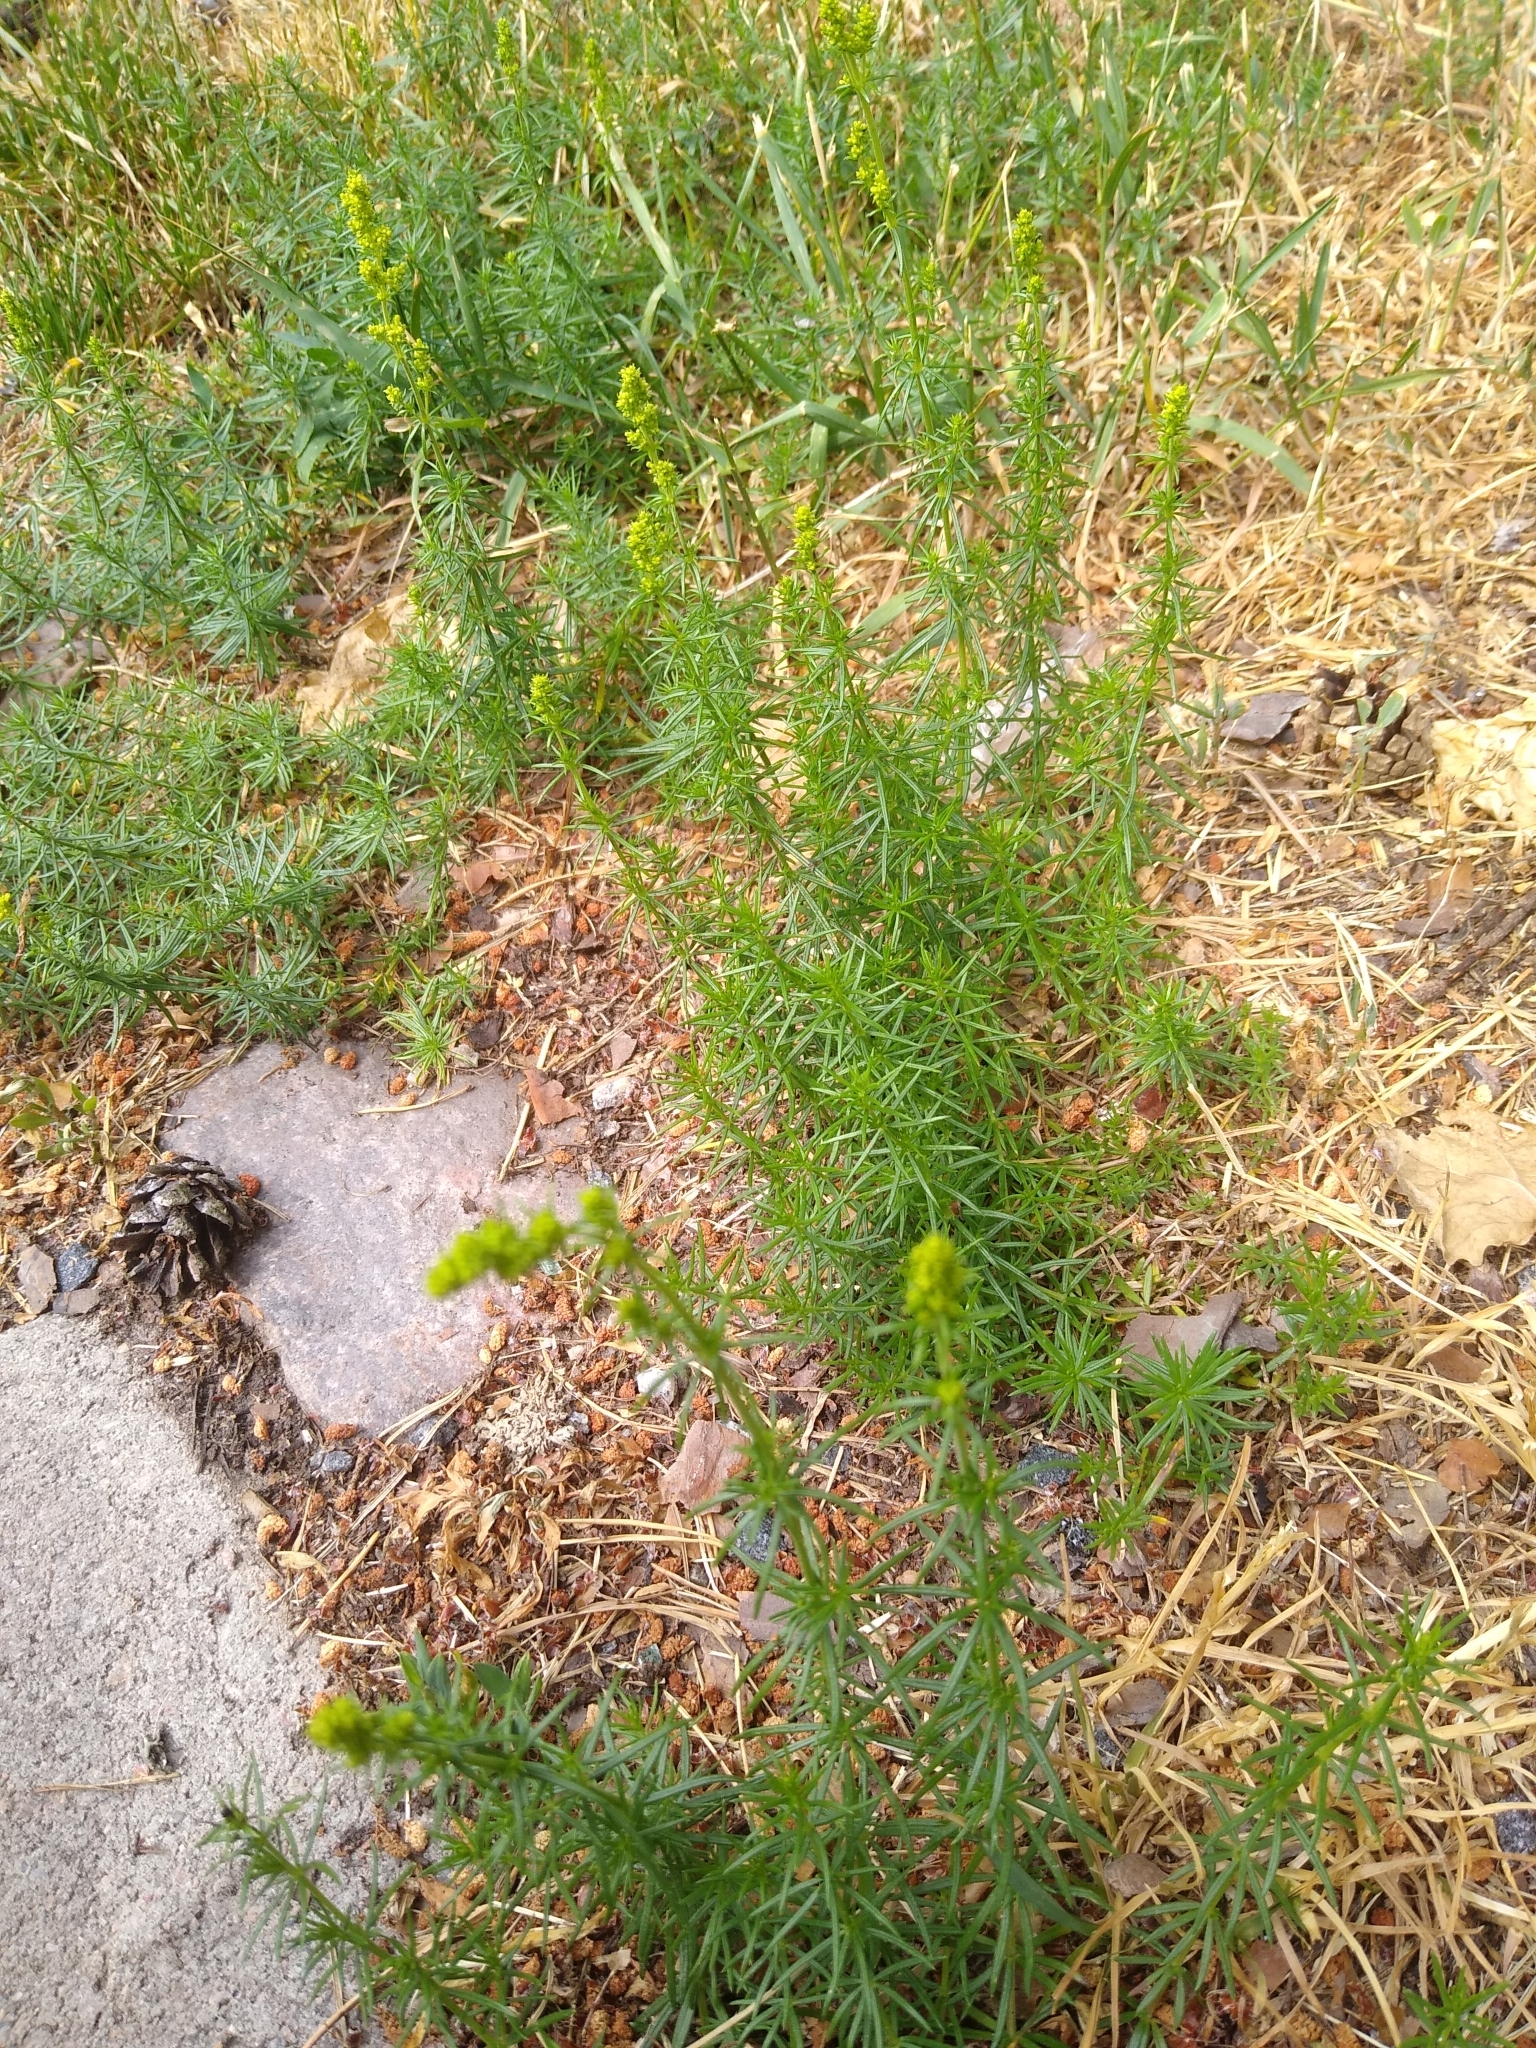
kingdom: Plantae
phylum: Tracheophyta
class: Magnoliopsida
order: Gentianales
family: Rubiaceae
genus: Galium
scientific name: Galium verum
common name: Lady's bedstraw
